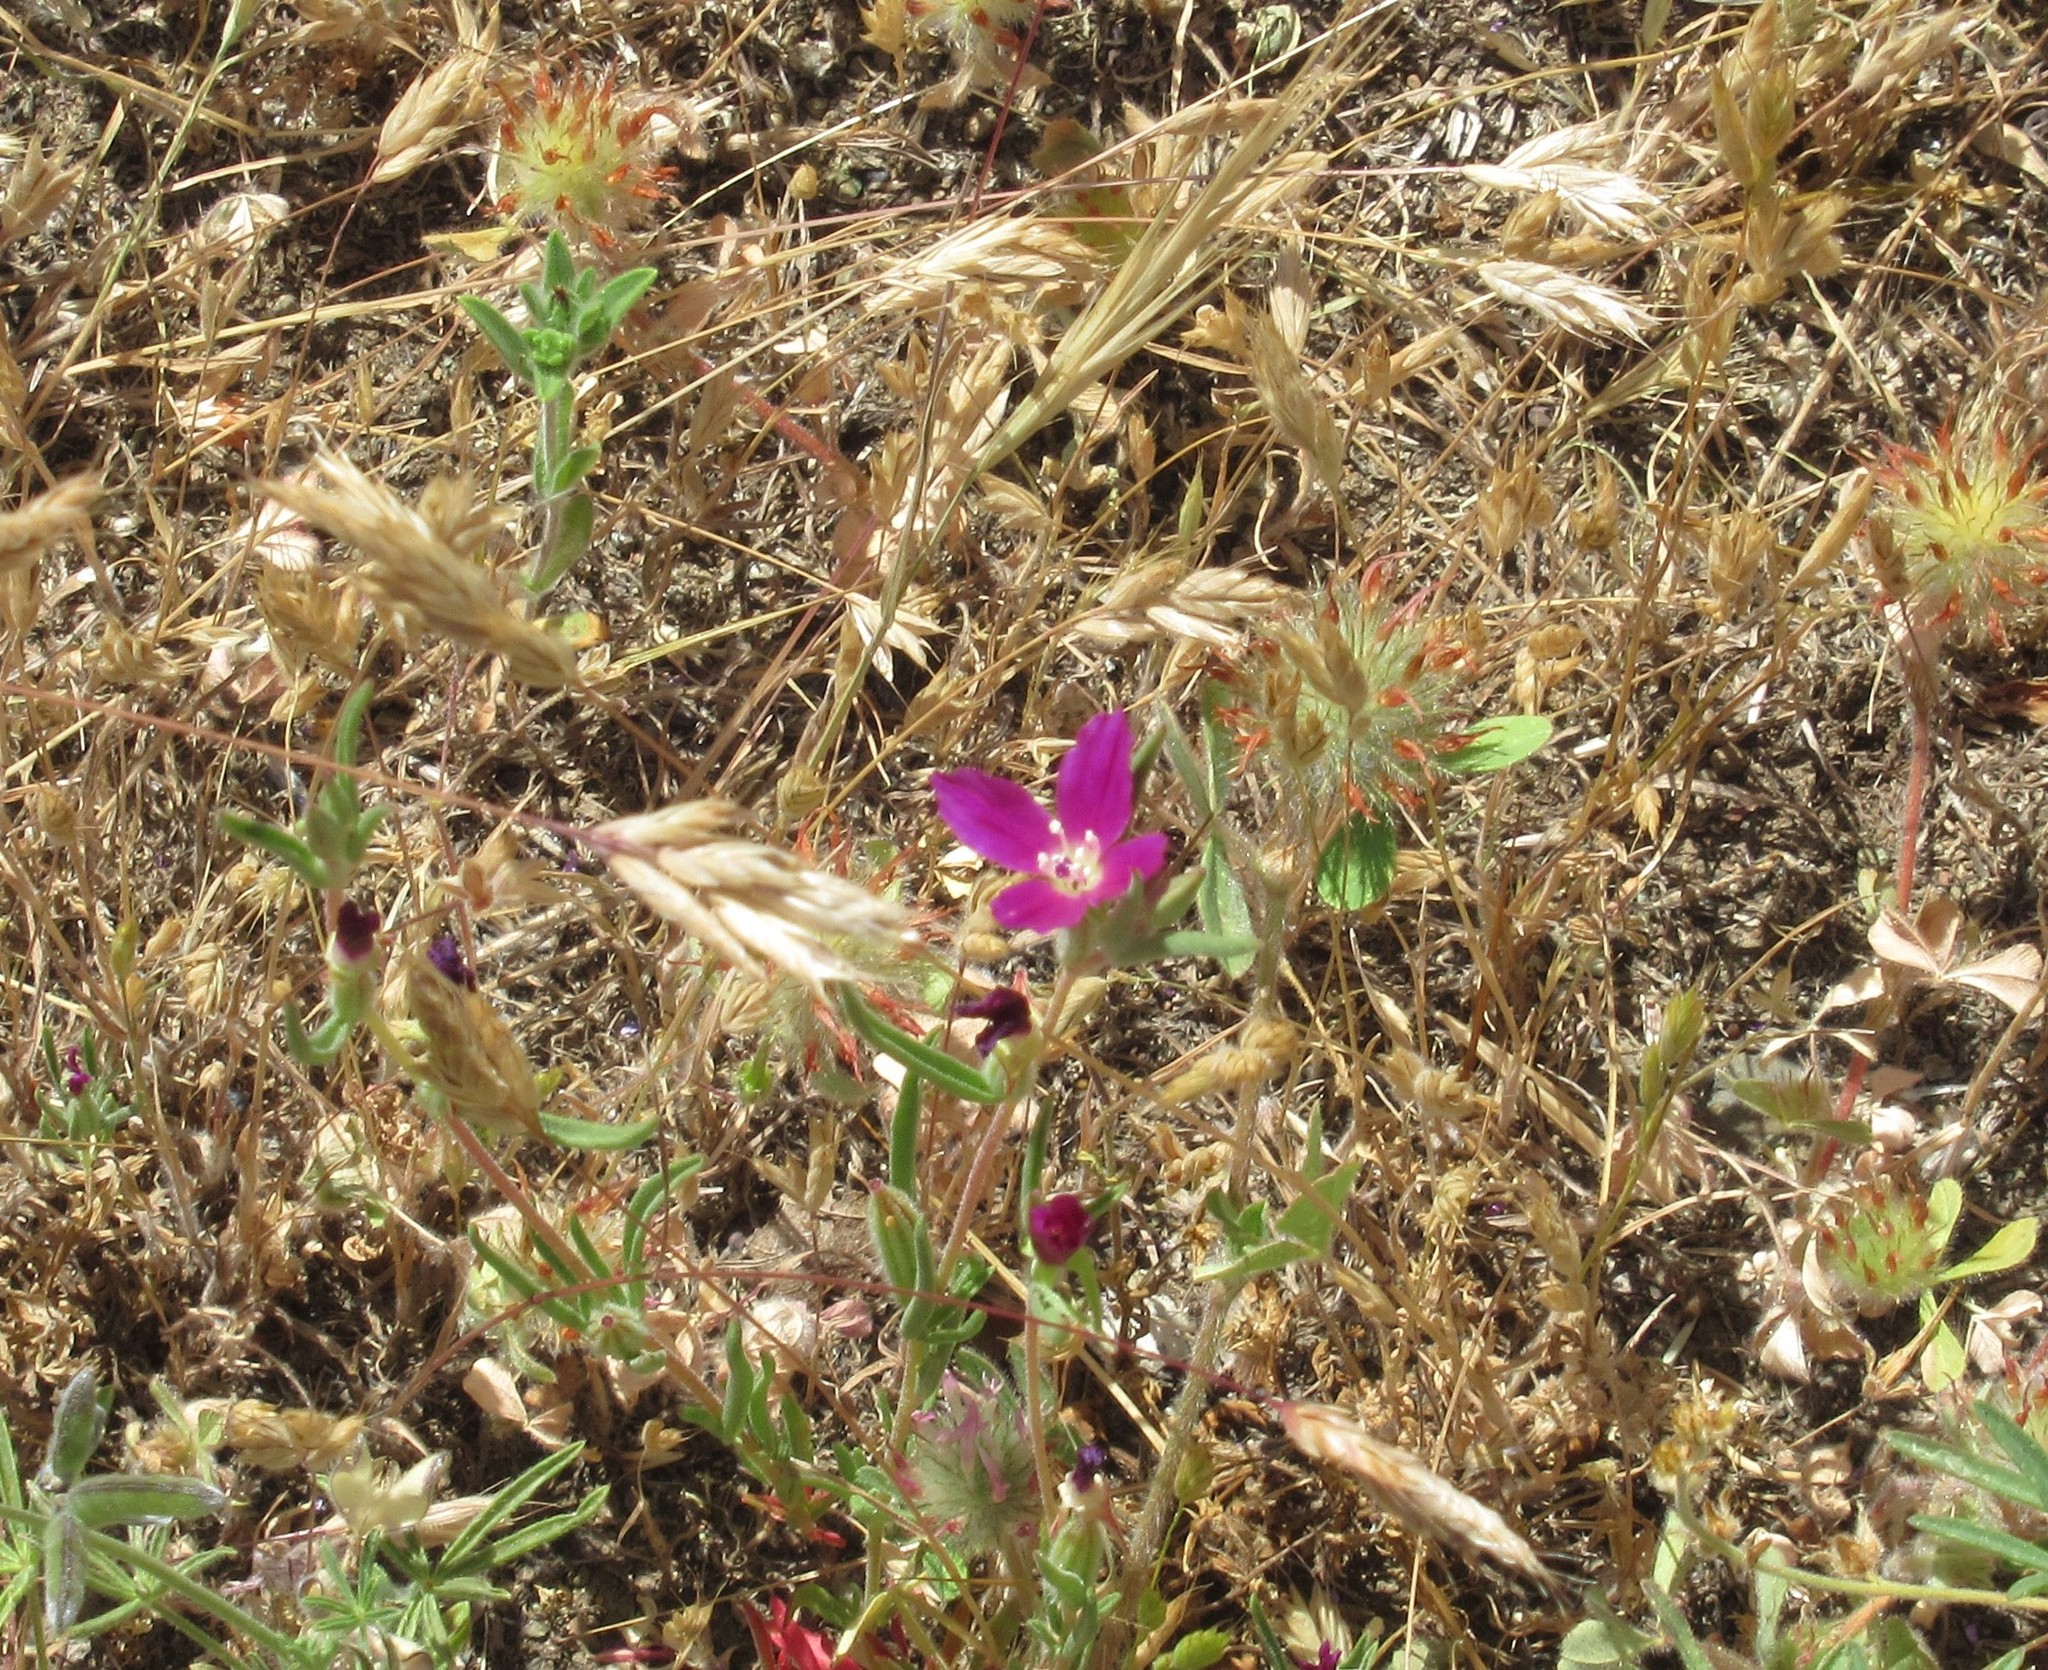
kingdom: Plantae
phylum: Tracheophyta
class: Magnoliopsida
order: Myrtales
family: Onagraceae
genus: Clarkia
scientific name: Clarkia purpurea
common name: Purple clarkia
